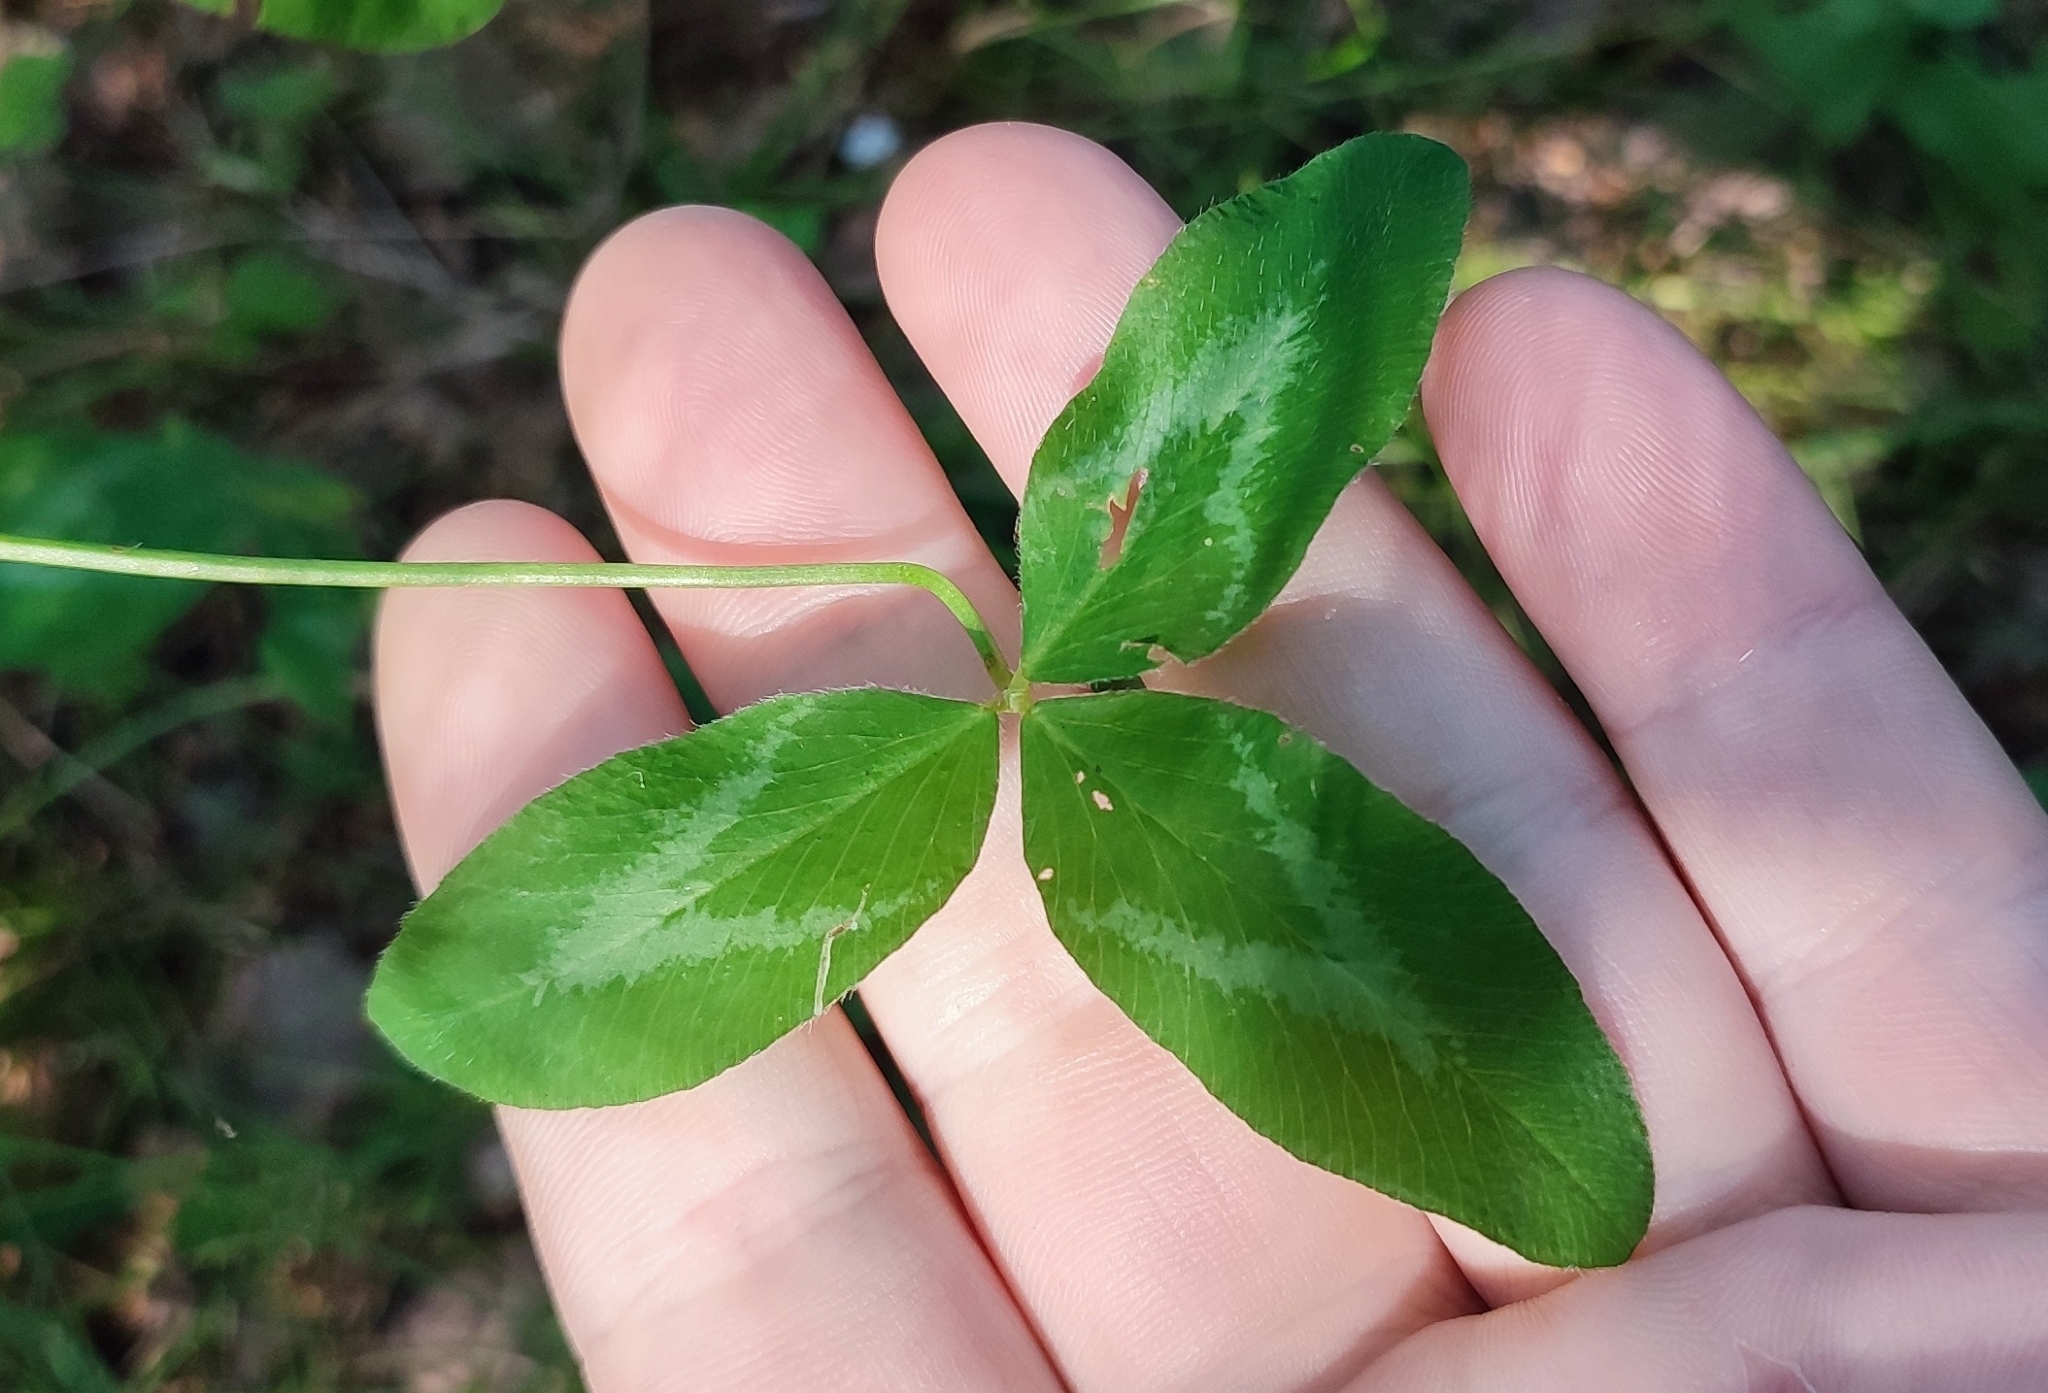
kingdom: Plantae
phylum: Tracheophyta
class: Magnoliopsida
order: Fabales
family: Fabaceae
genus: Trifolium
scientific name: Trifolium pratense
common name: Red clover
